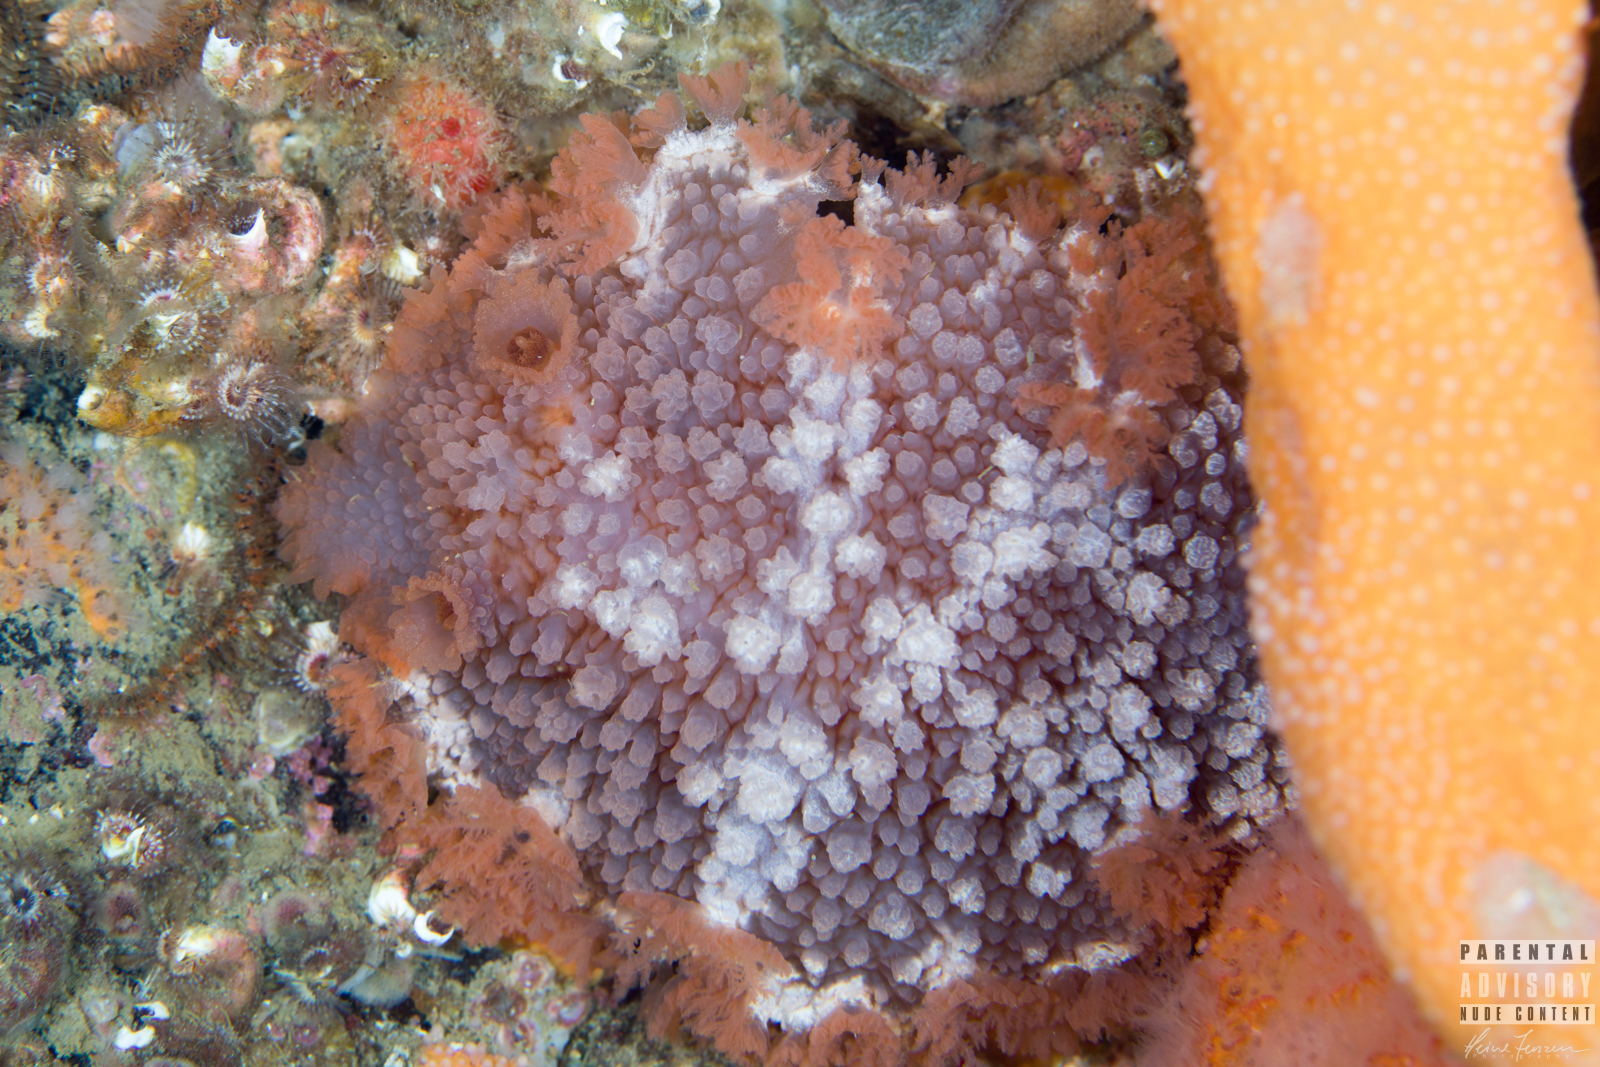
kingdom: Animalia
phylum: Mollusca
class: Gastropoda
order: Nudibranchia
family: Tritoniidae
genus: Tritonia
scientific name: Tritonia hombergii
